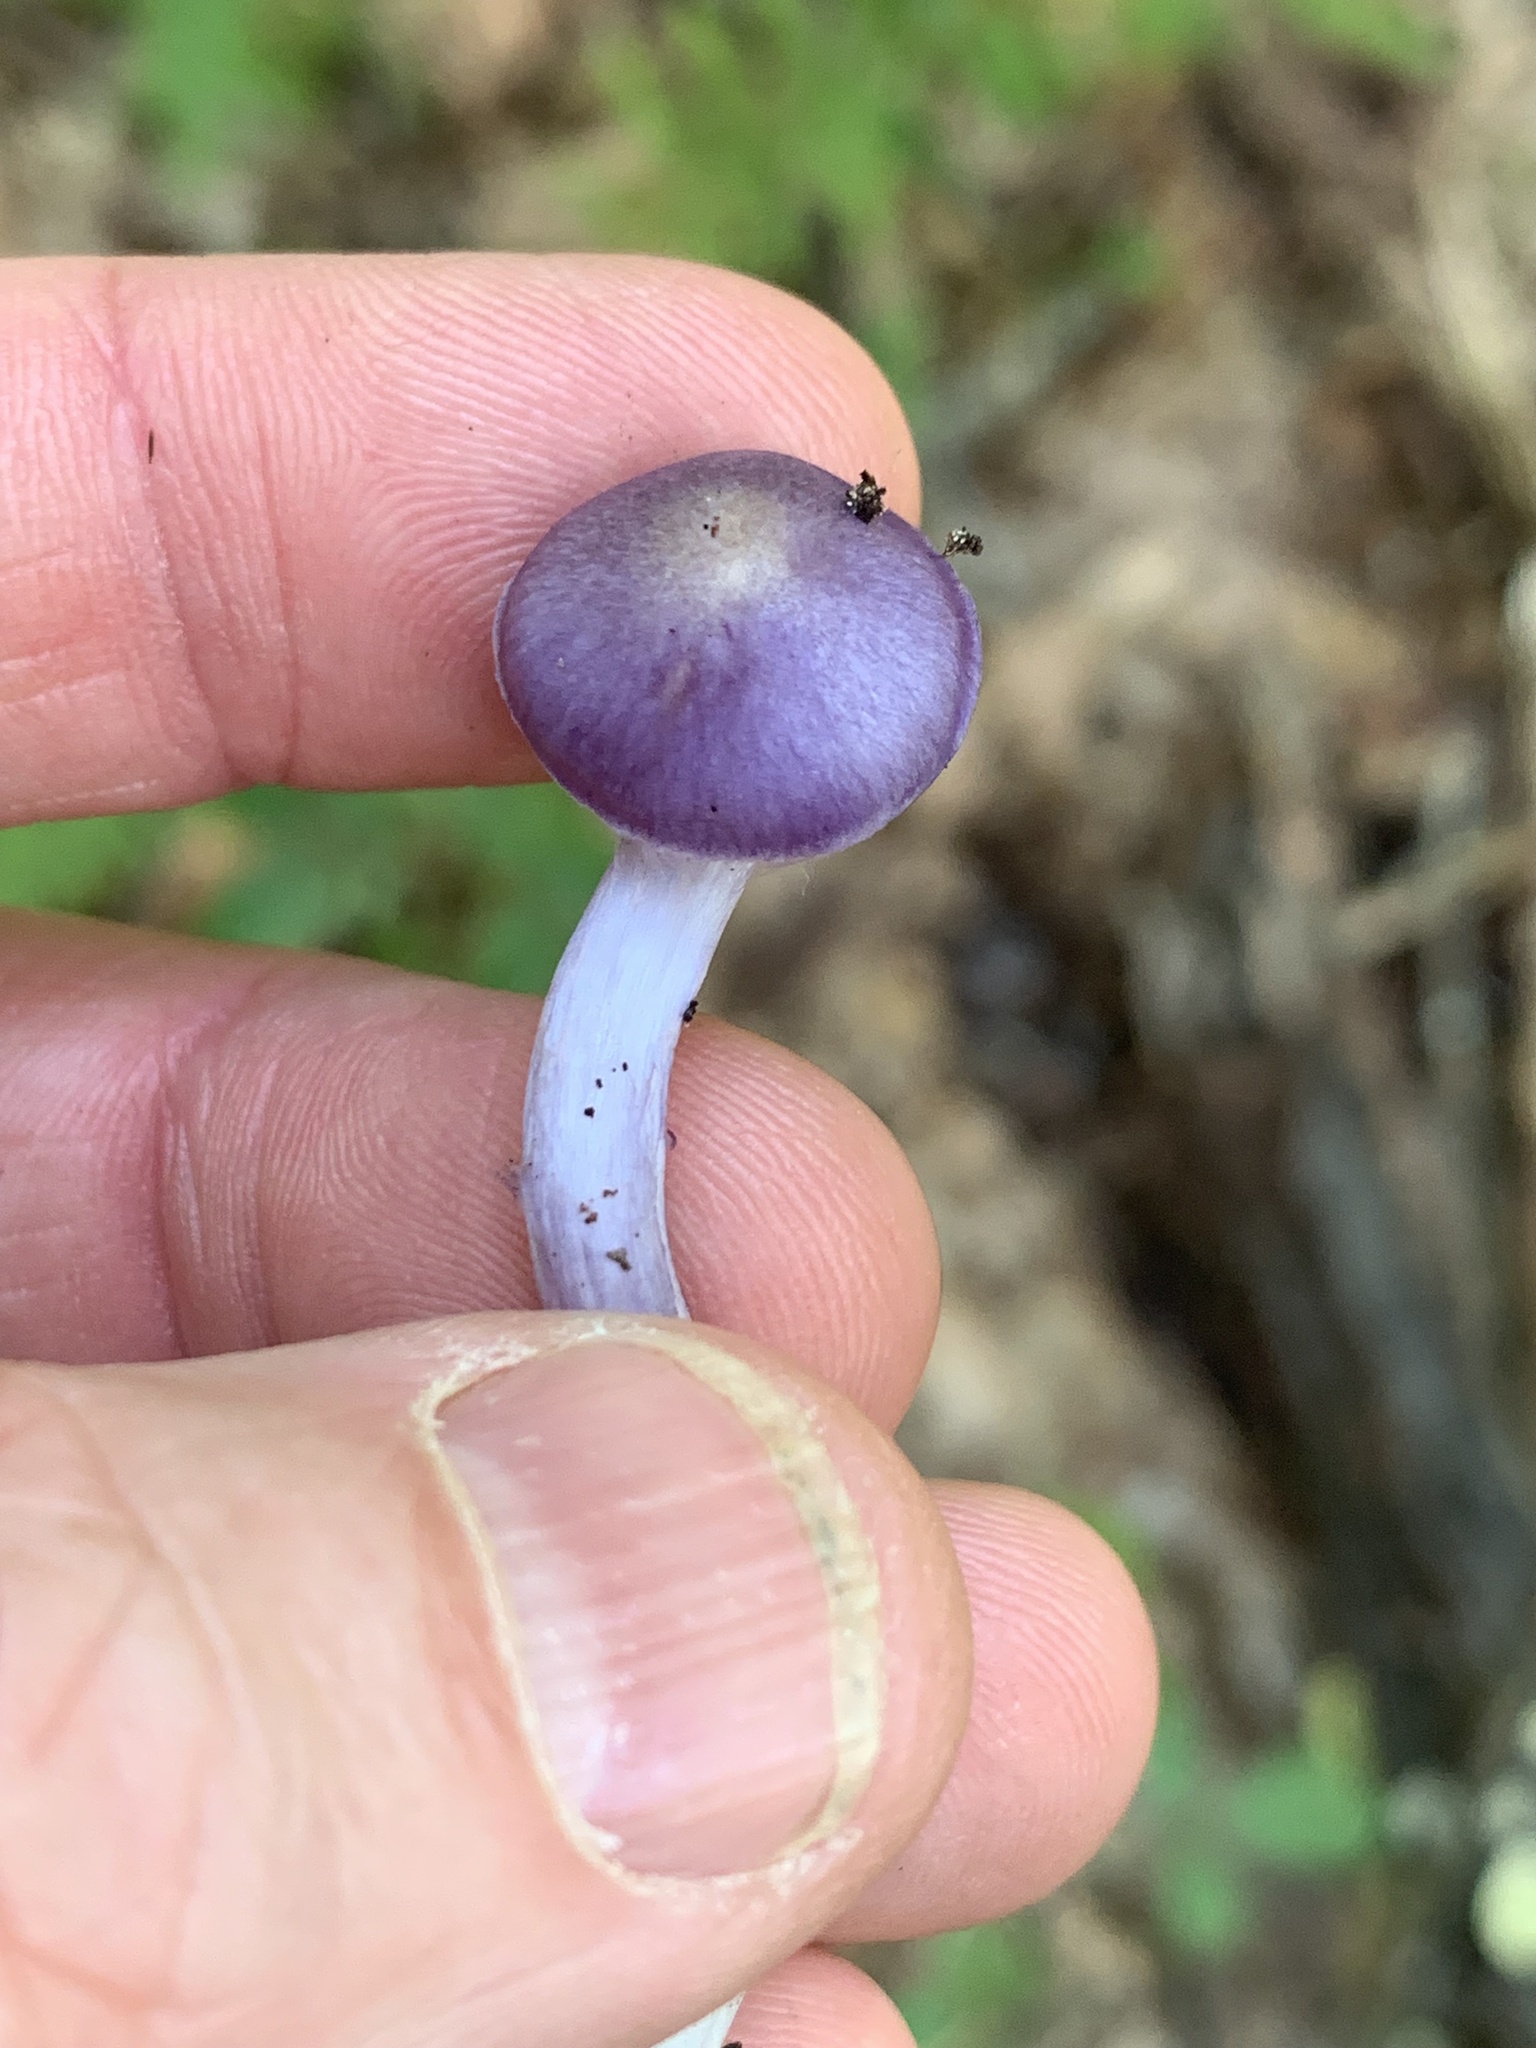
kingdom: Fungi
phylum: Basidiomycota
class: Agaricomycetes
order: Agaricales
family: Cortinariaceae
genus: Cortinarius
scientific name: Cortinarius iodes
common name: Viscid violet cort
